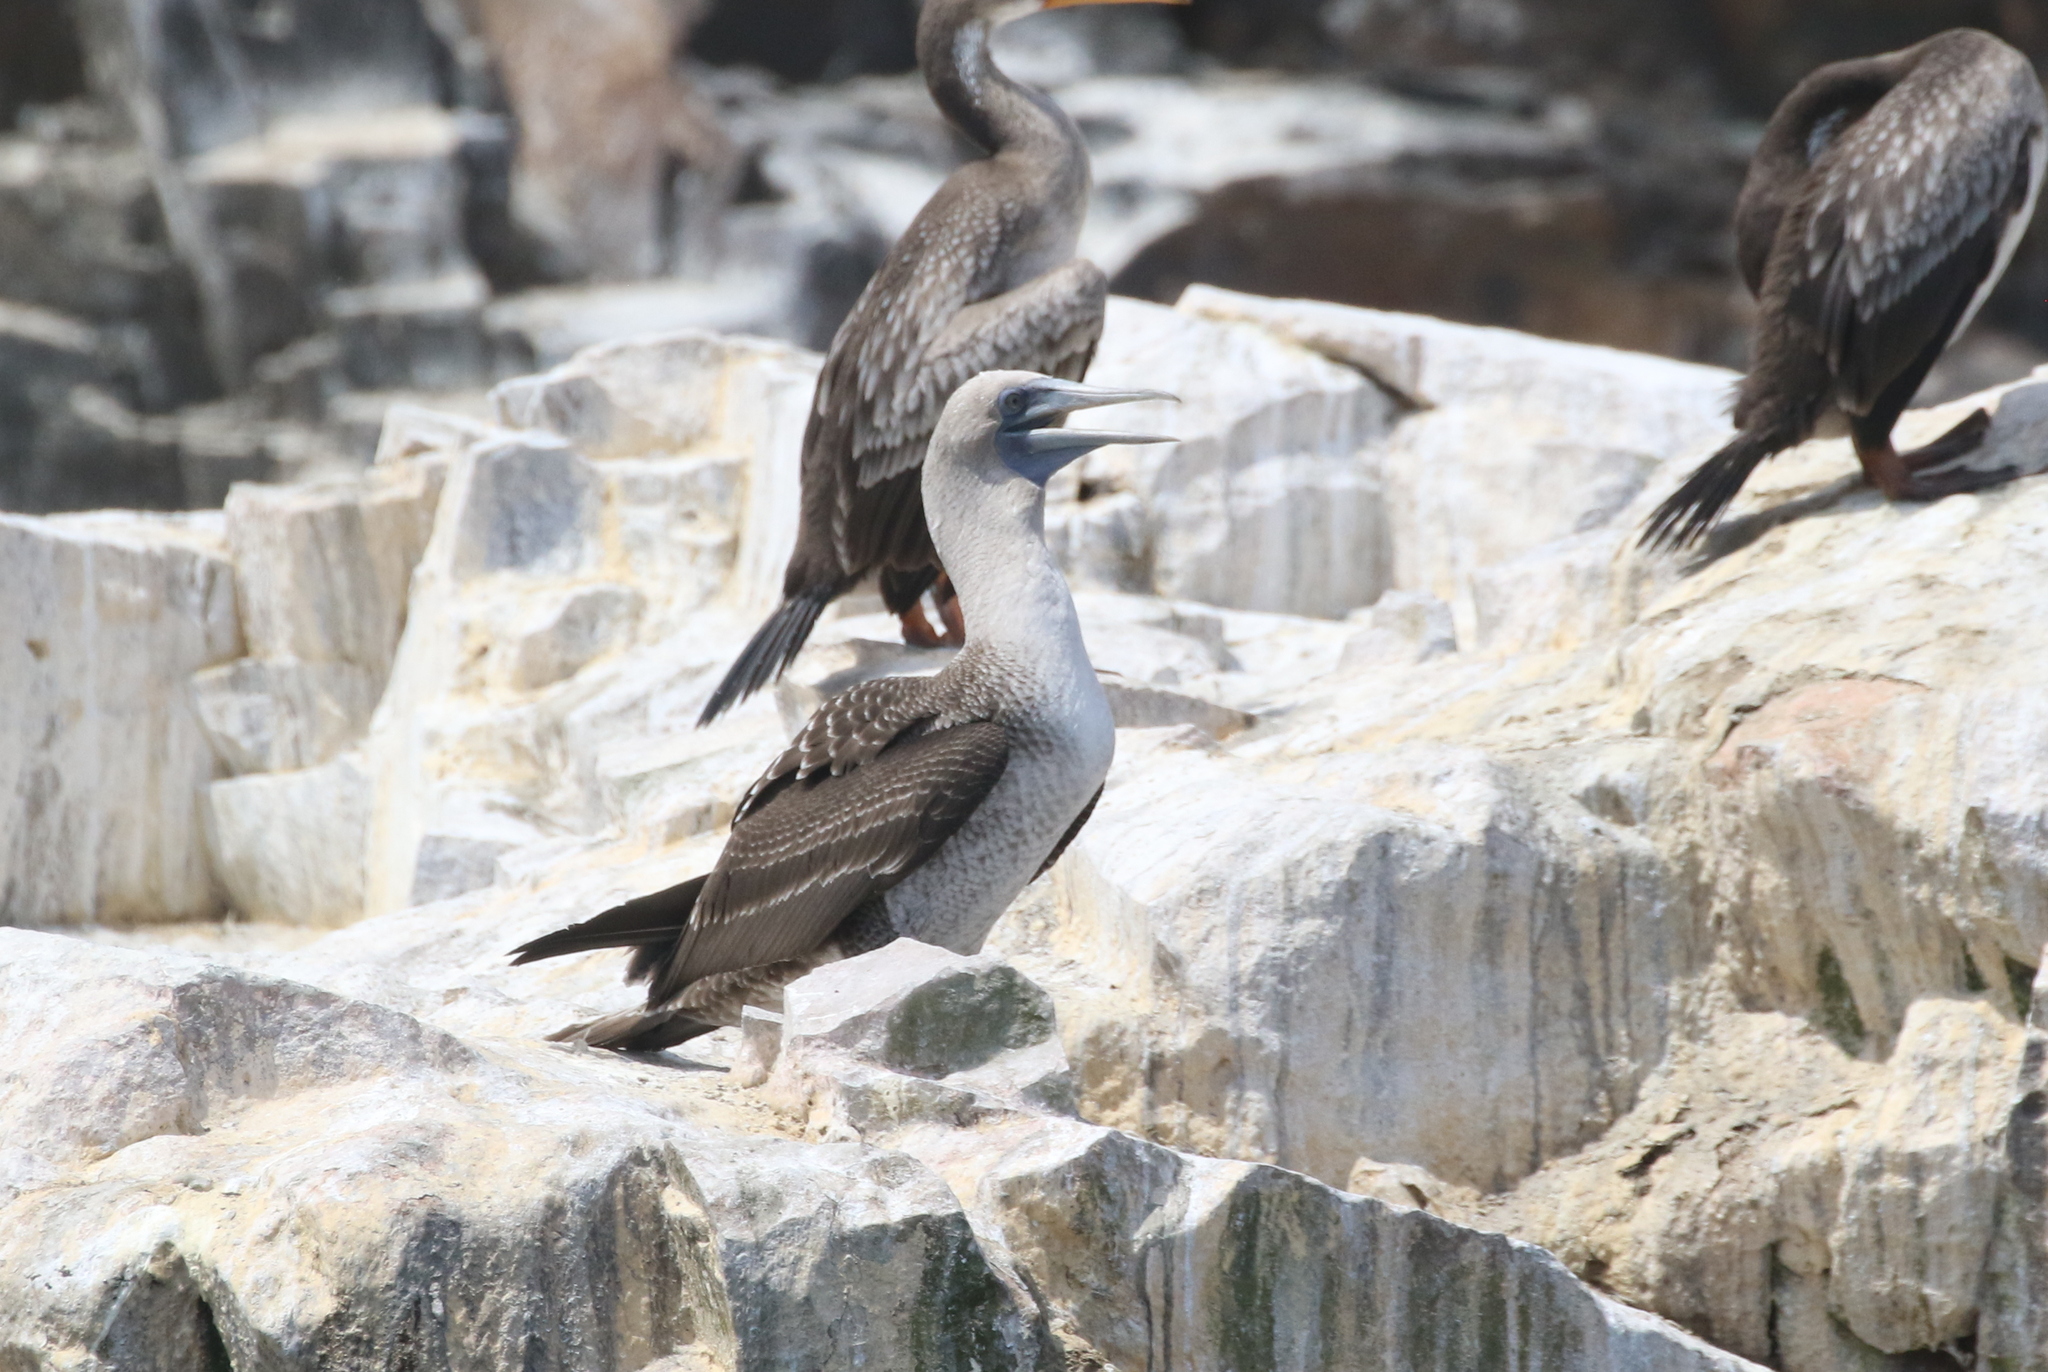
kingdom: Animalia
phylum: Chordata
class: Aves
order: Suliformes
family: Sulidae
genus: Sula
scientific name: Sula variegata
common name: Peruvian booby
